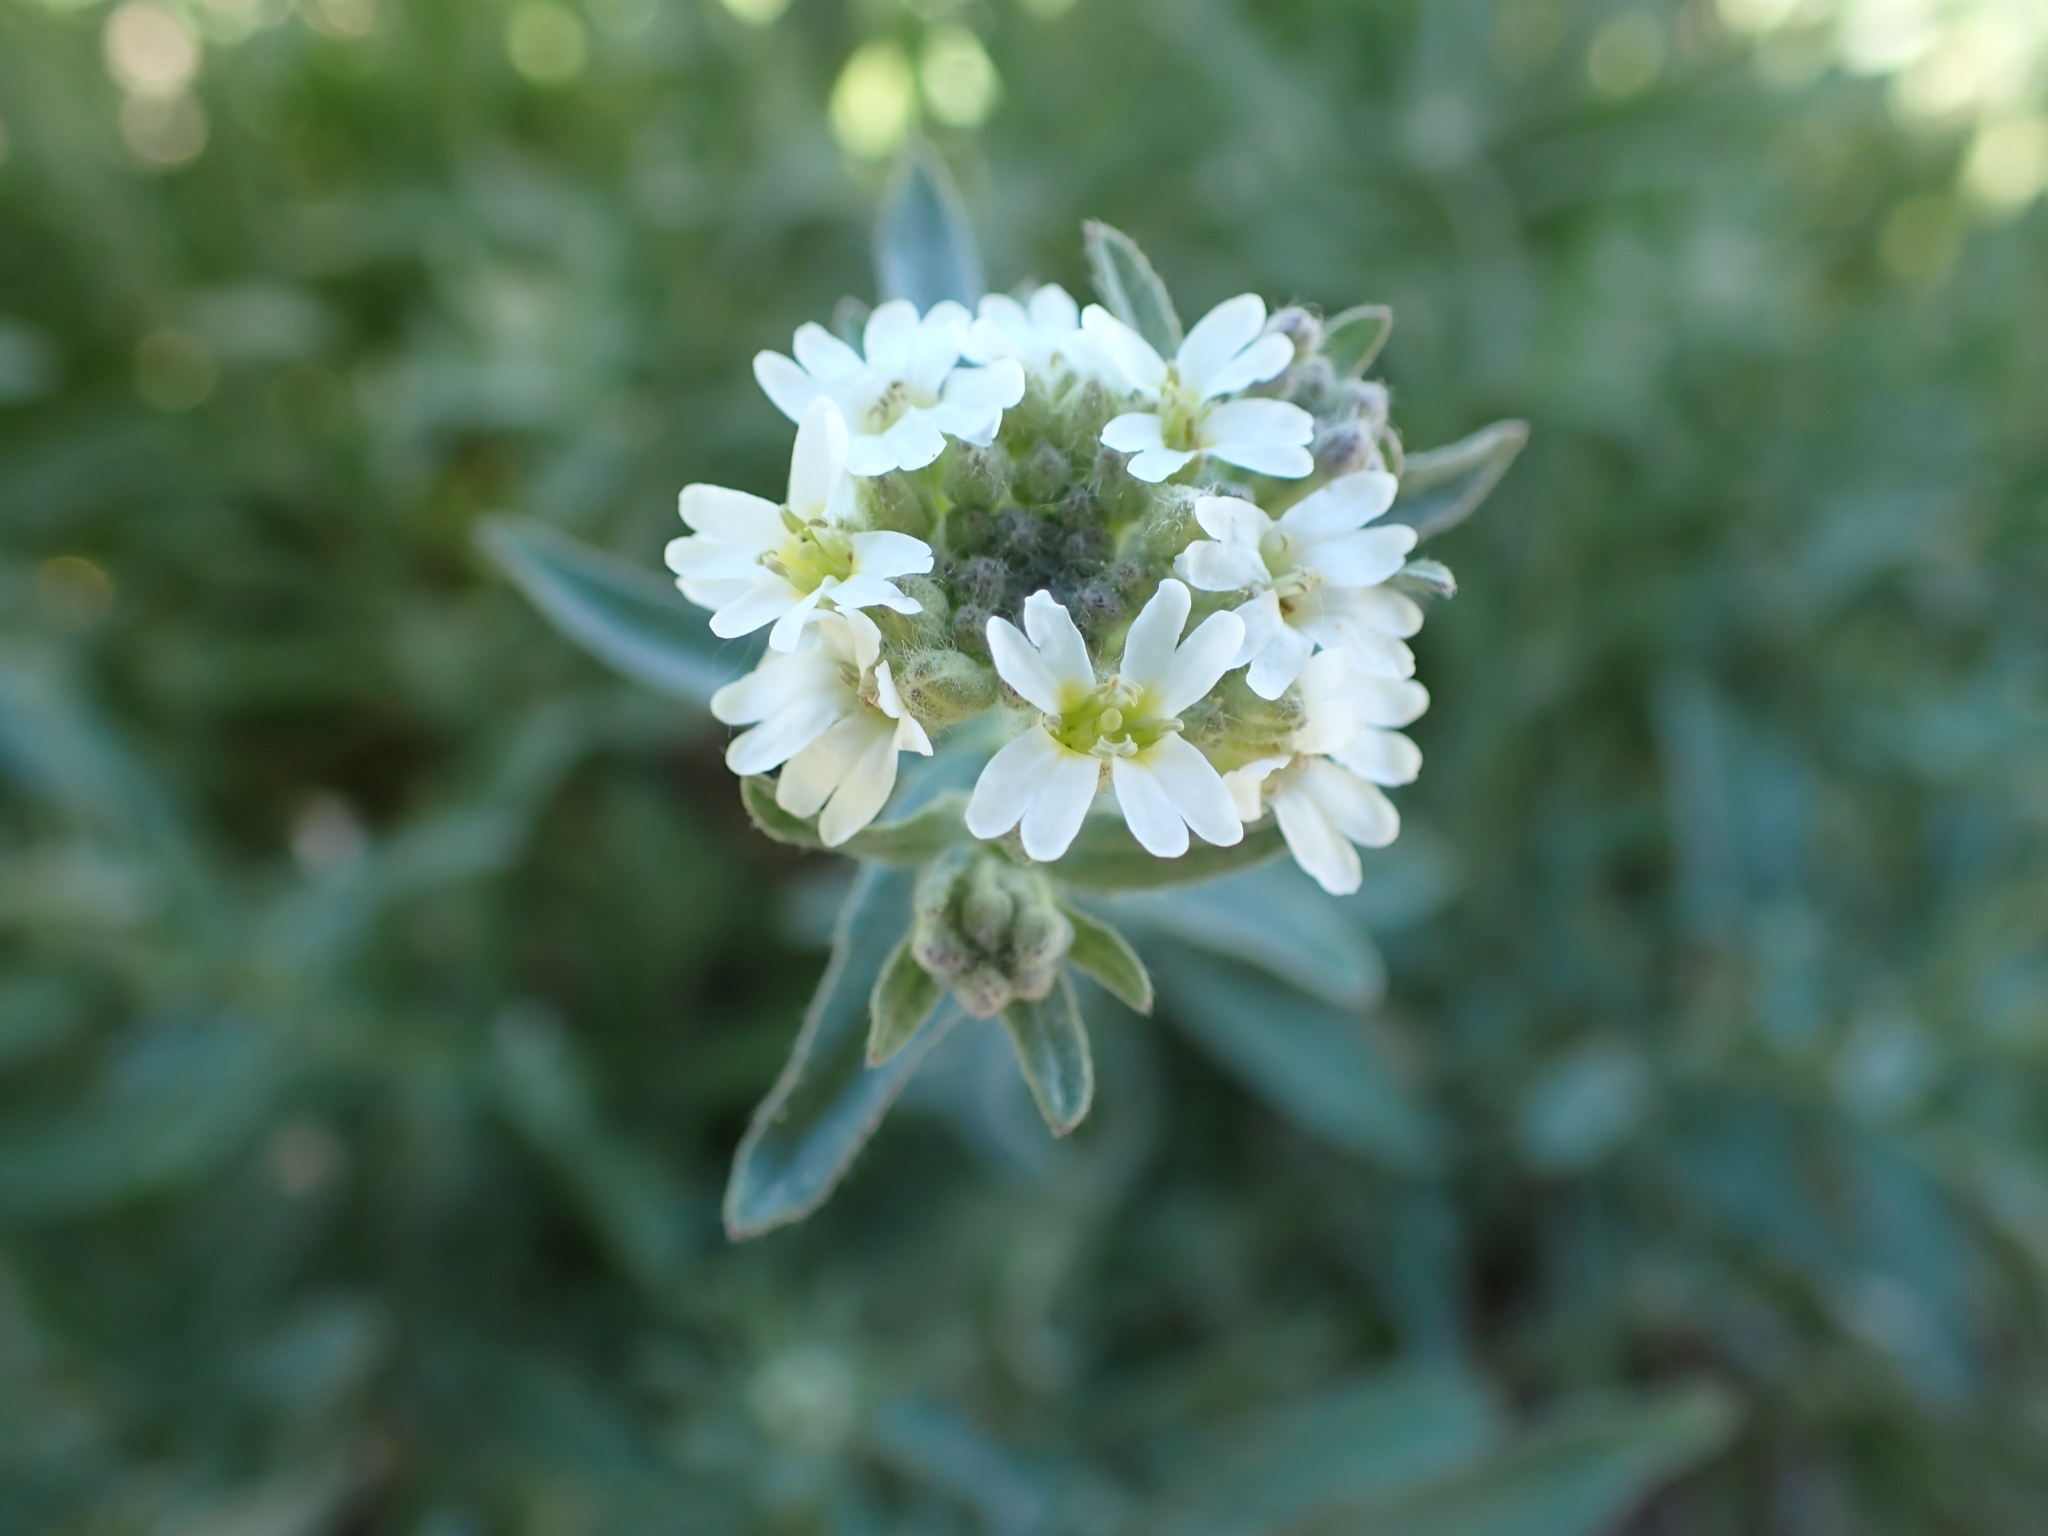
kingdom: Plantae
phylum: Tracheophyta
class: Magnoliopsida
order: Brassicales
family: Brassicaceae
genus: Berteroa
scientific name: Berteroa incana
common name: Hoary alison
